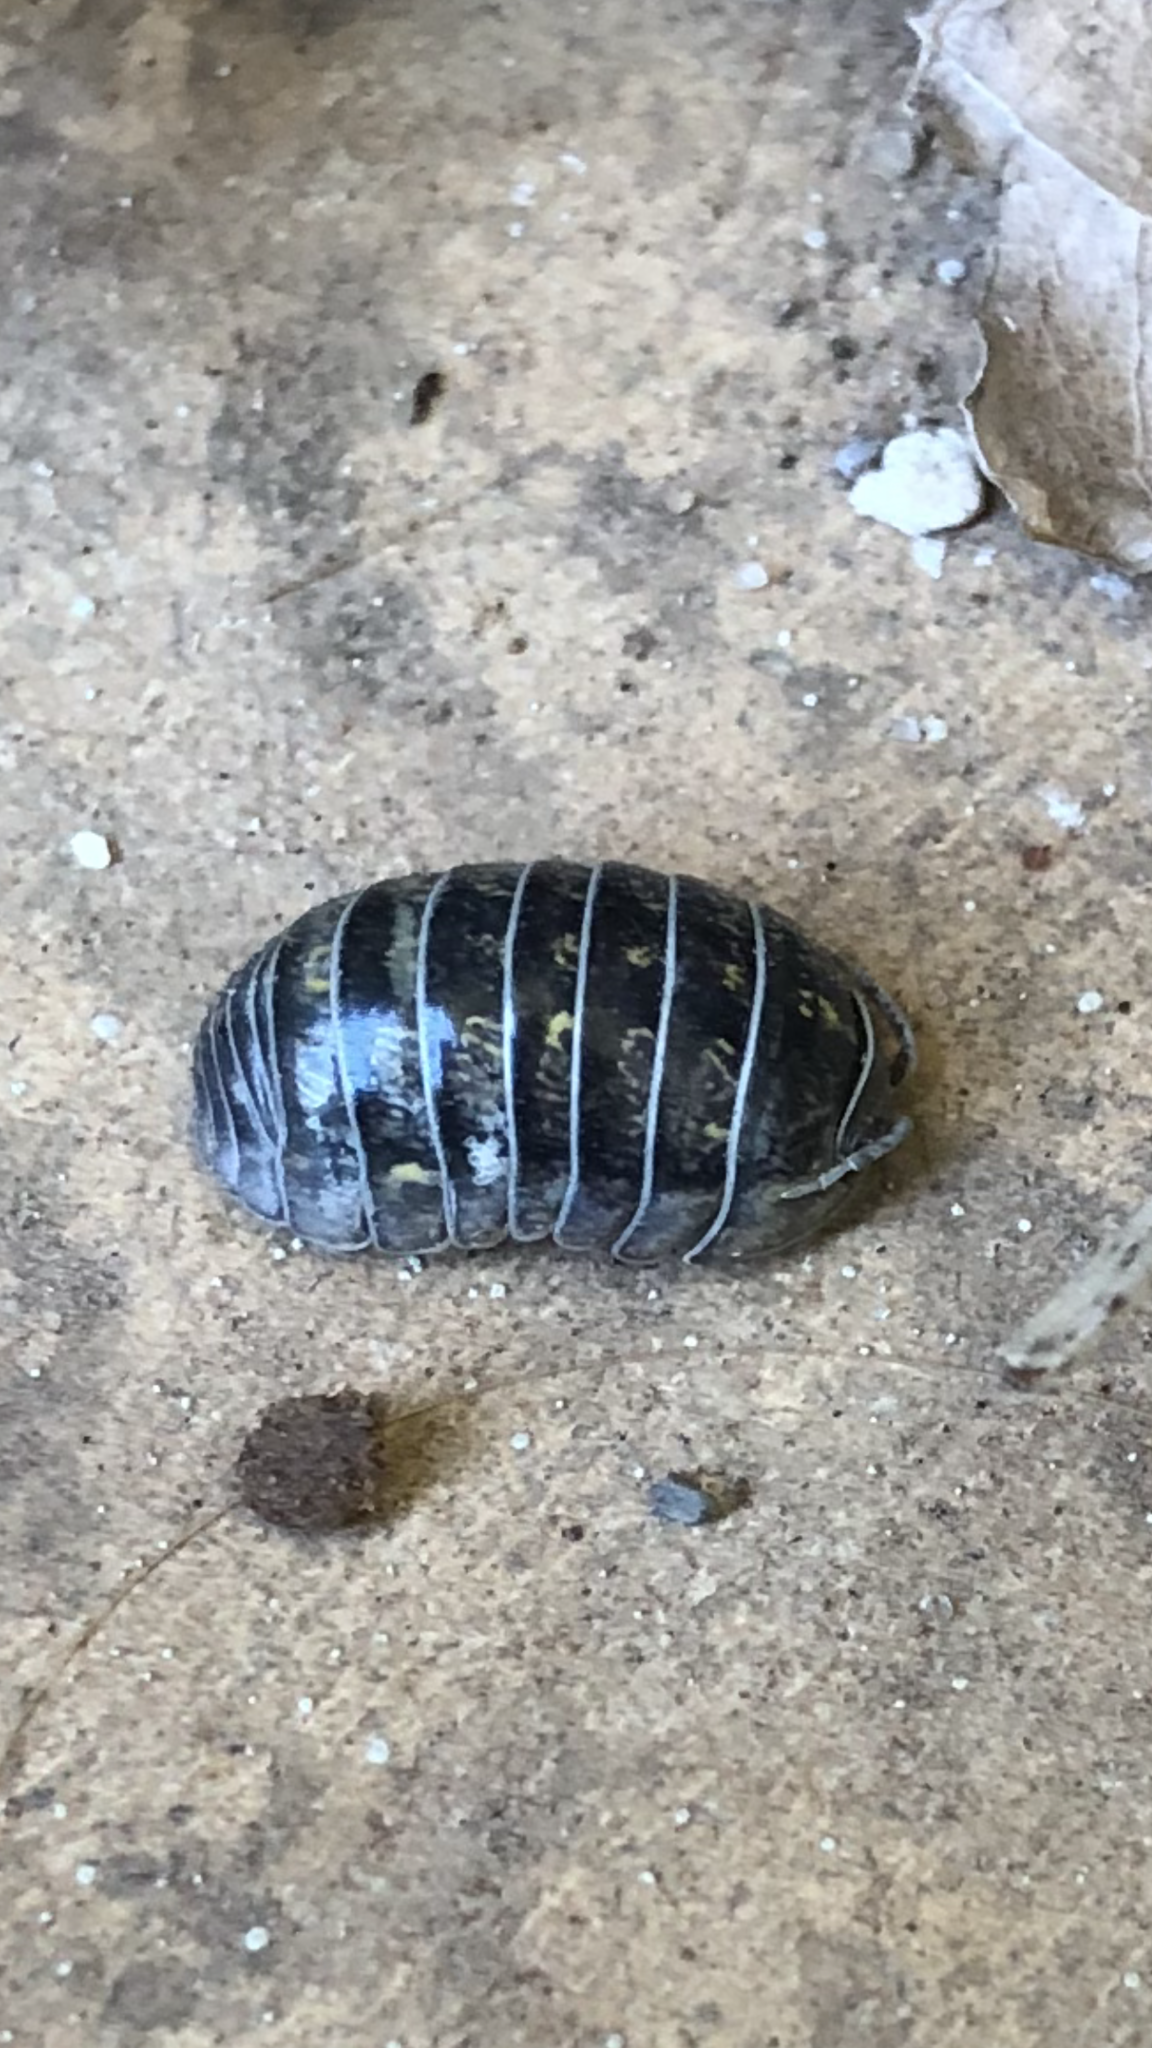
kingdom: Animalia
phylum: Arthropoda
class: Malacostraca
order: Isopoda
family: Armadillidiidae
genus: Armadillidium
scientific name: Armadillidium vulgare
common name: Common pill woodlouse
